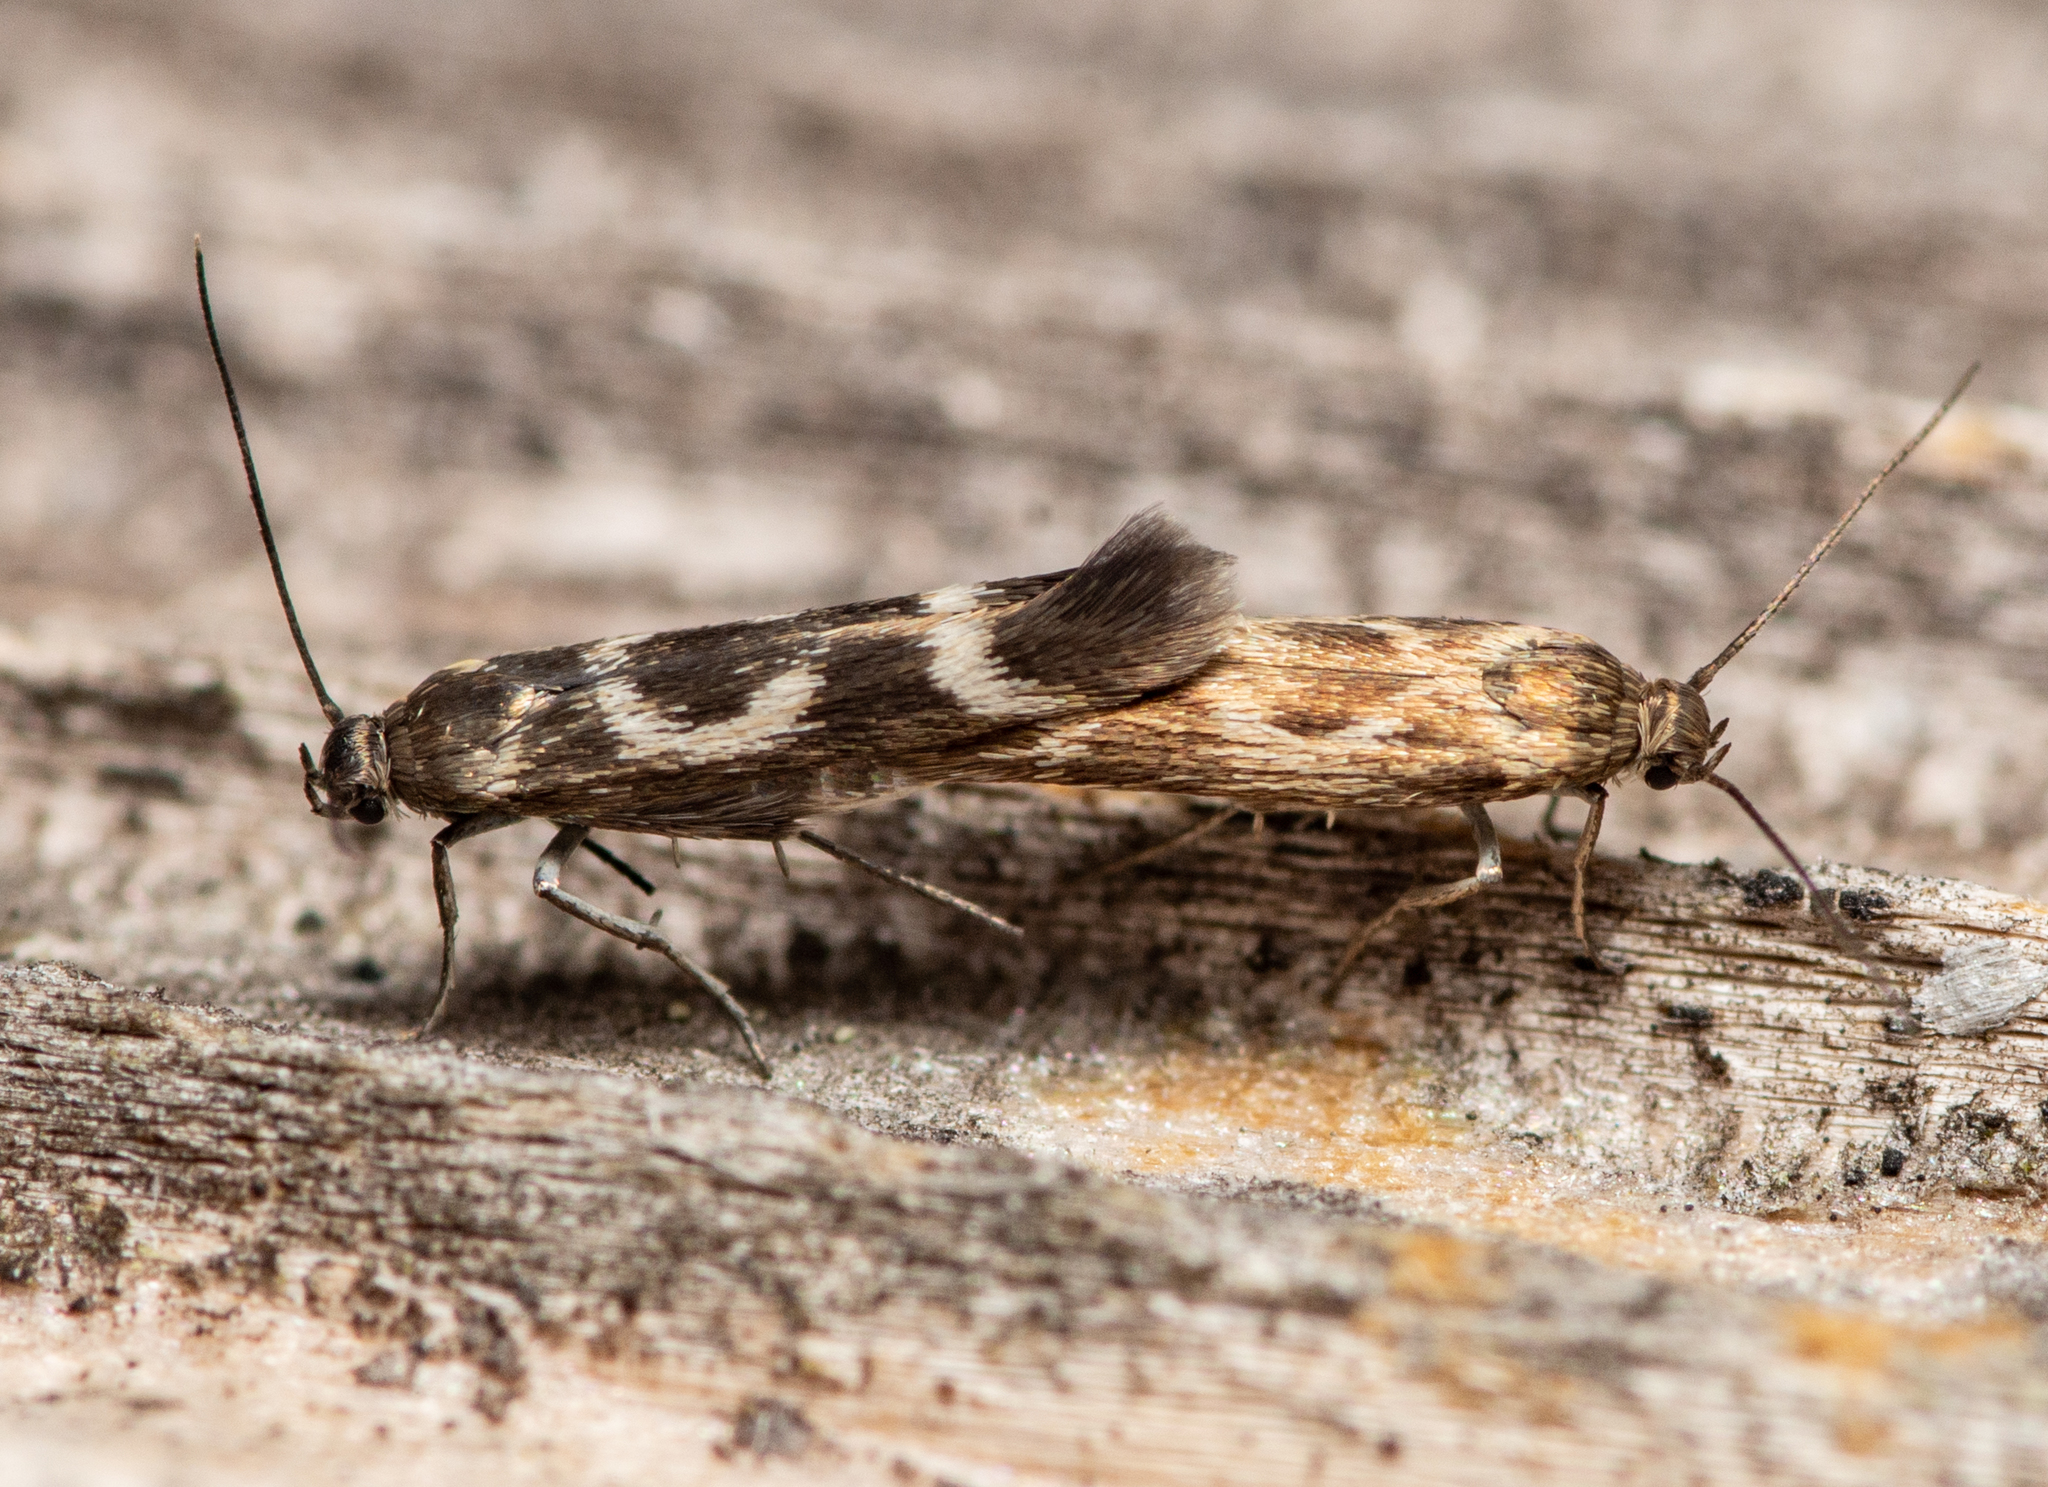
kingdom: Animalia
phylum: Arthropoda
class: Insecta
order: Lepidoptera
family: Scythrididae
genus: Scythris
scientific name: Scythris trivinctella
